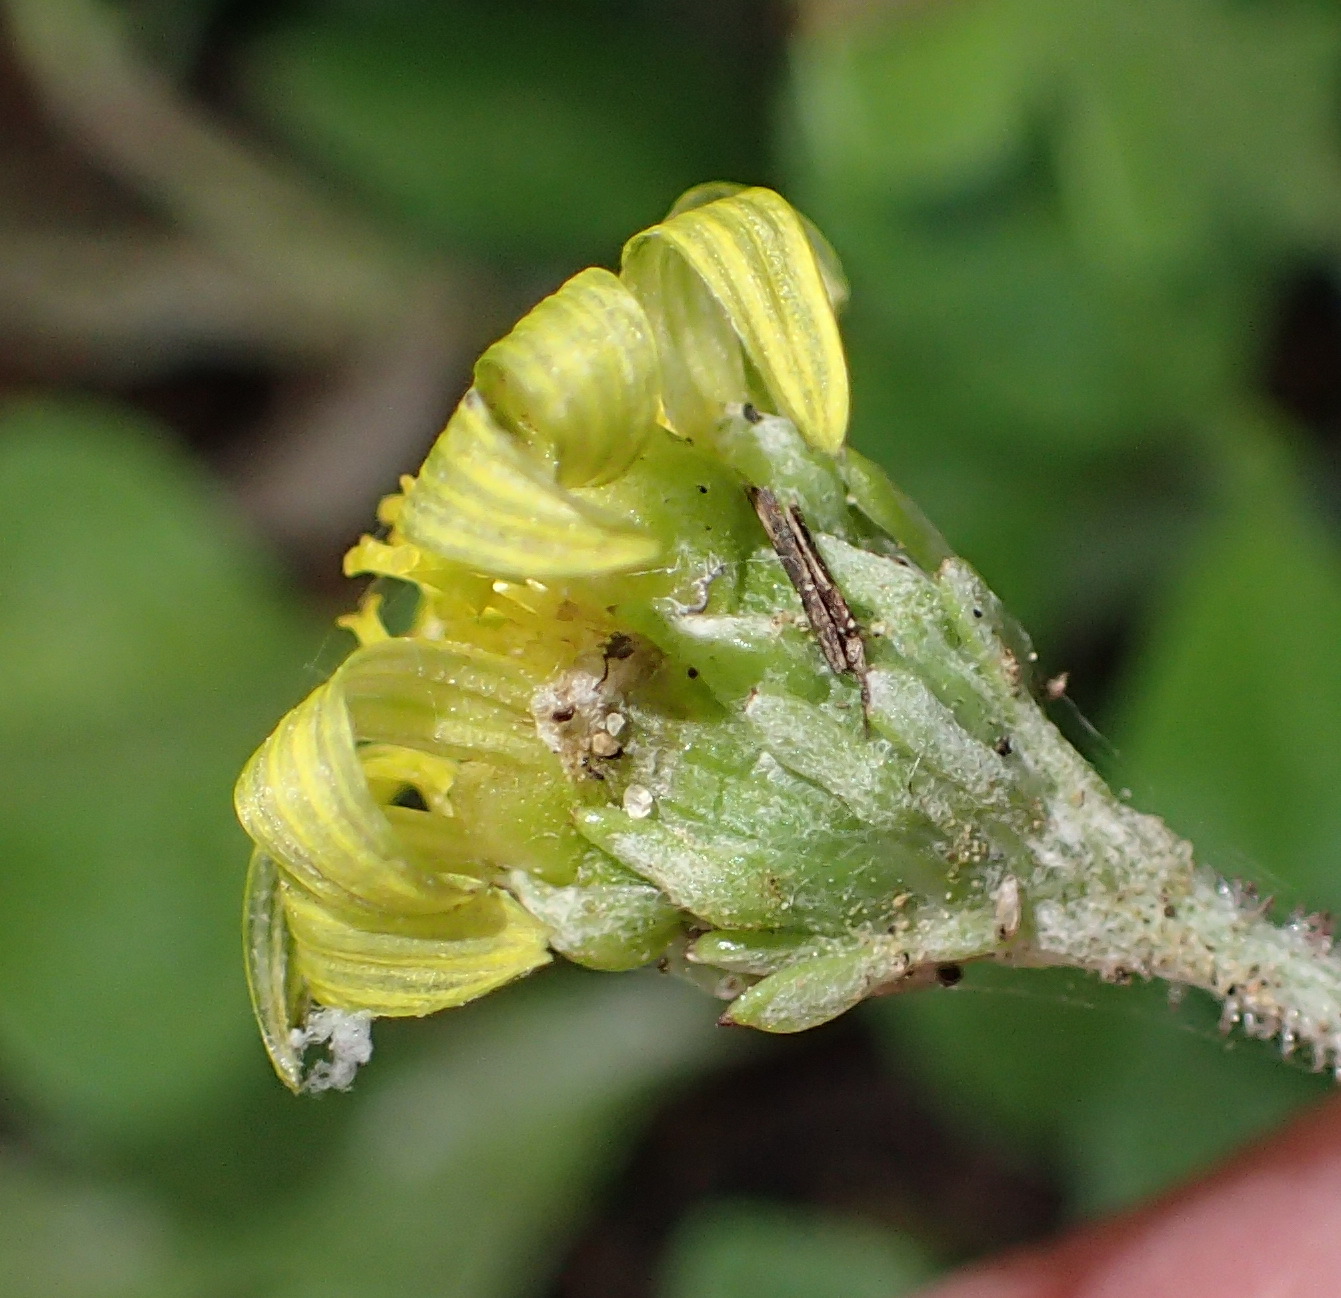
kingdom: Plantae
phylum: Tracheophyta
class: Magnoliopsida
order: Asterales
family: Asteraceae
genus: Arctotis
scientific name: Arctotis arctotoides
